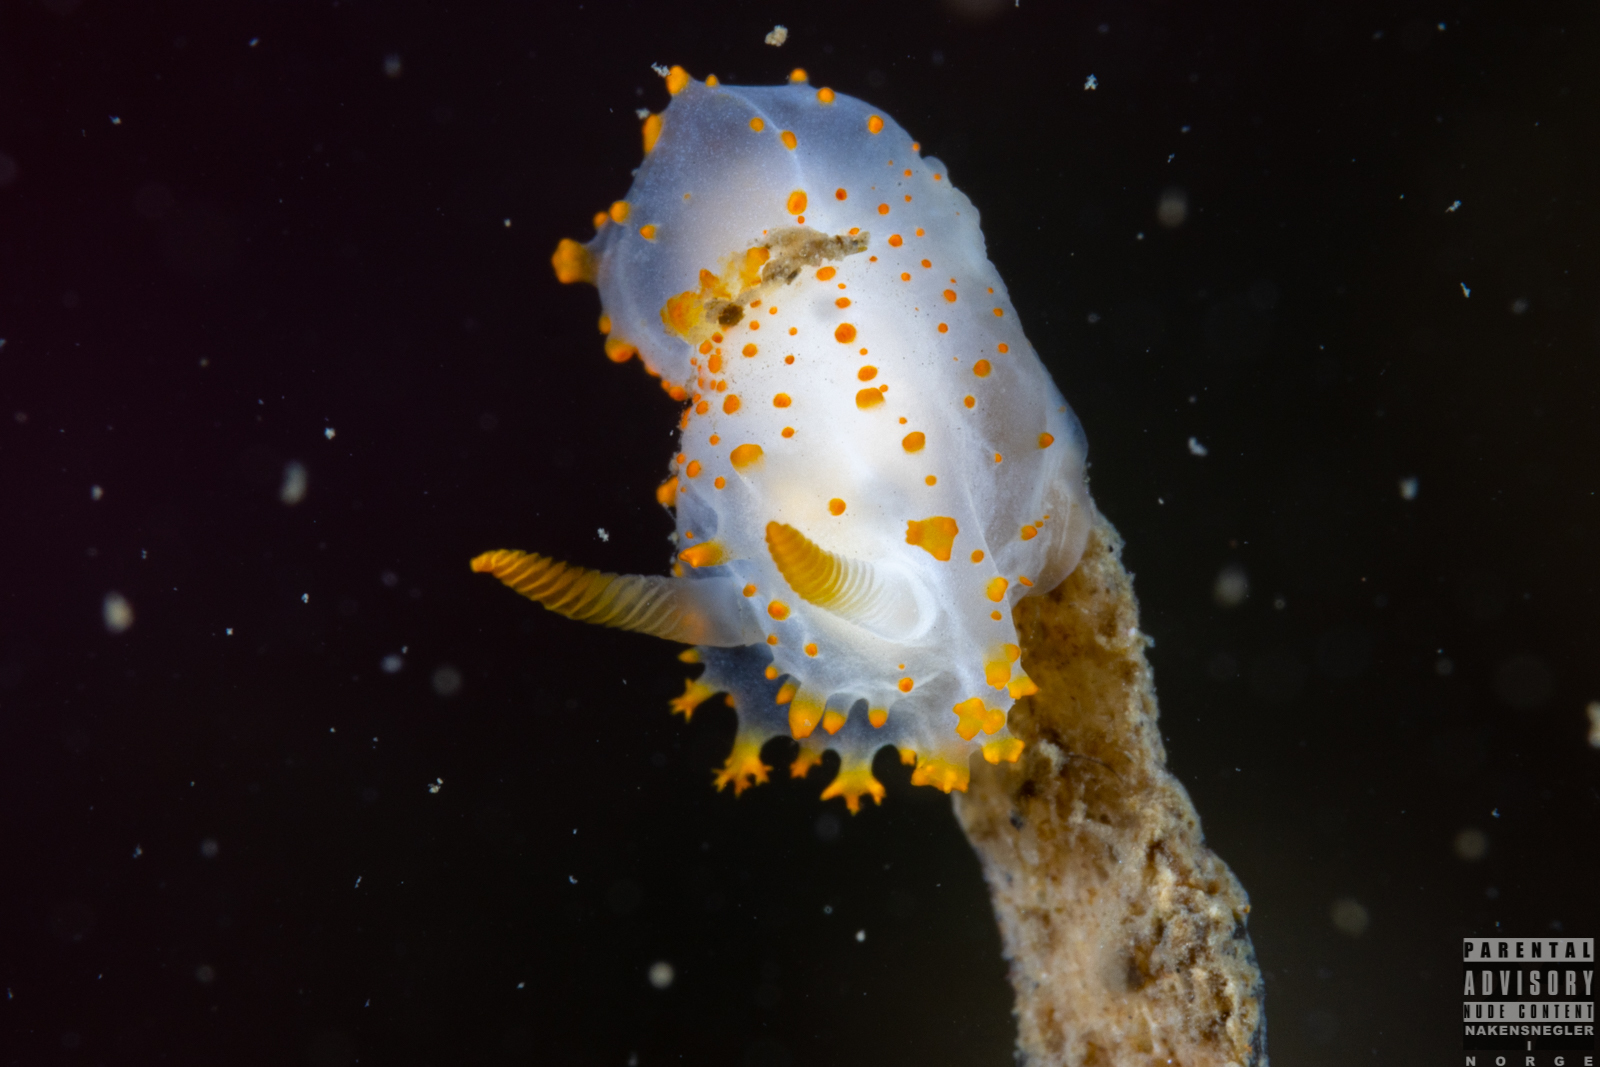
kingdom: Animalia
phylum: Mollusca
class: Gastropoda
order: Nudibranchia
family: Polyceridae
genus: Crimora
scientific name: Crimora papillata
